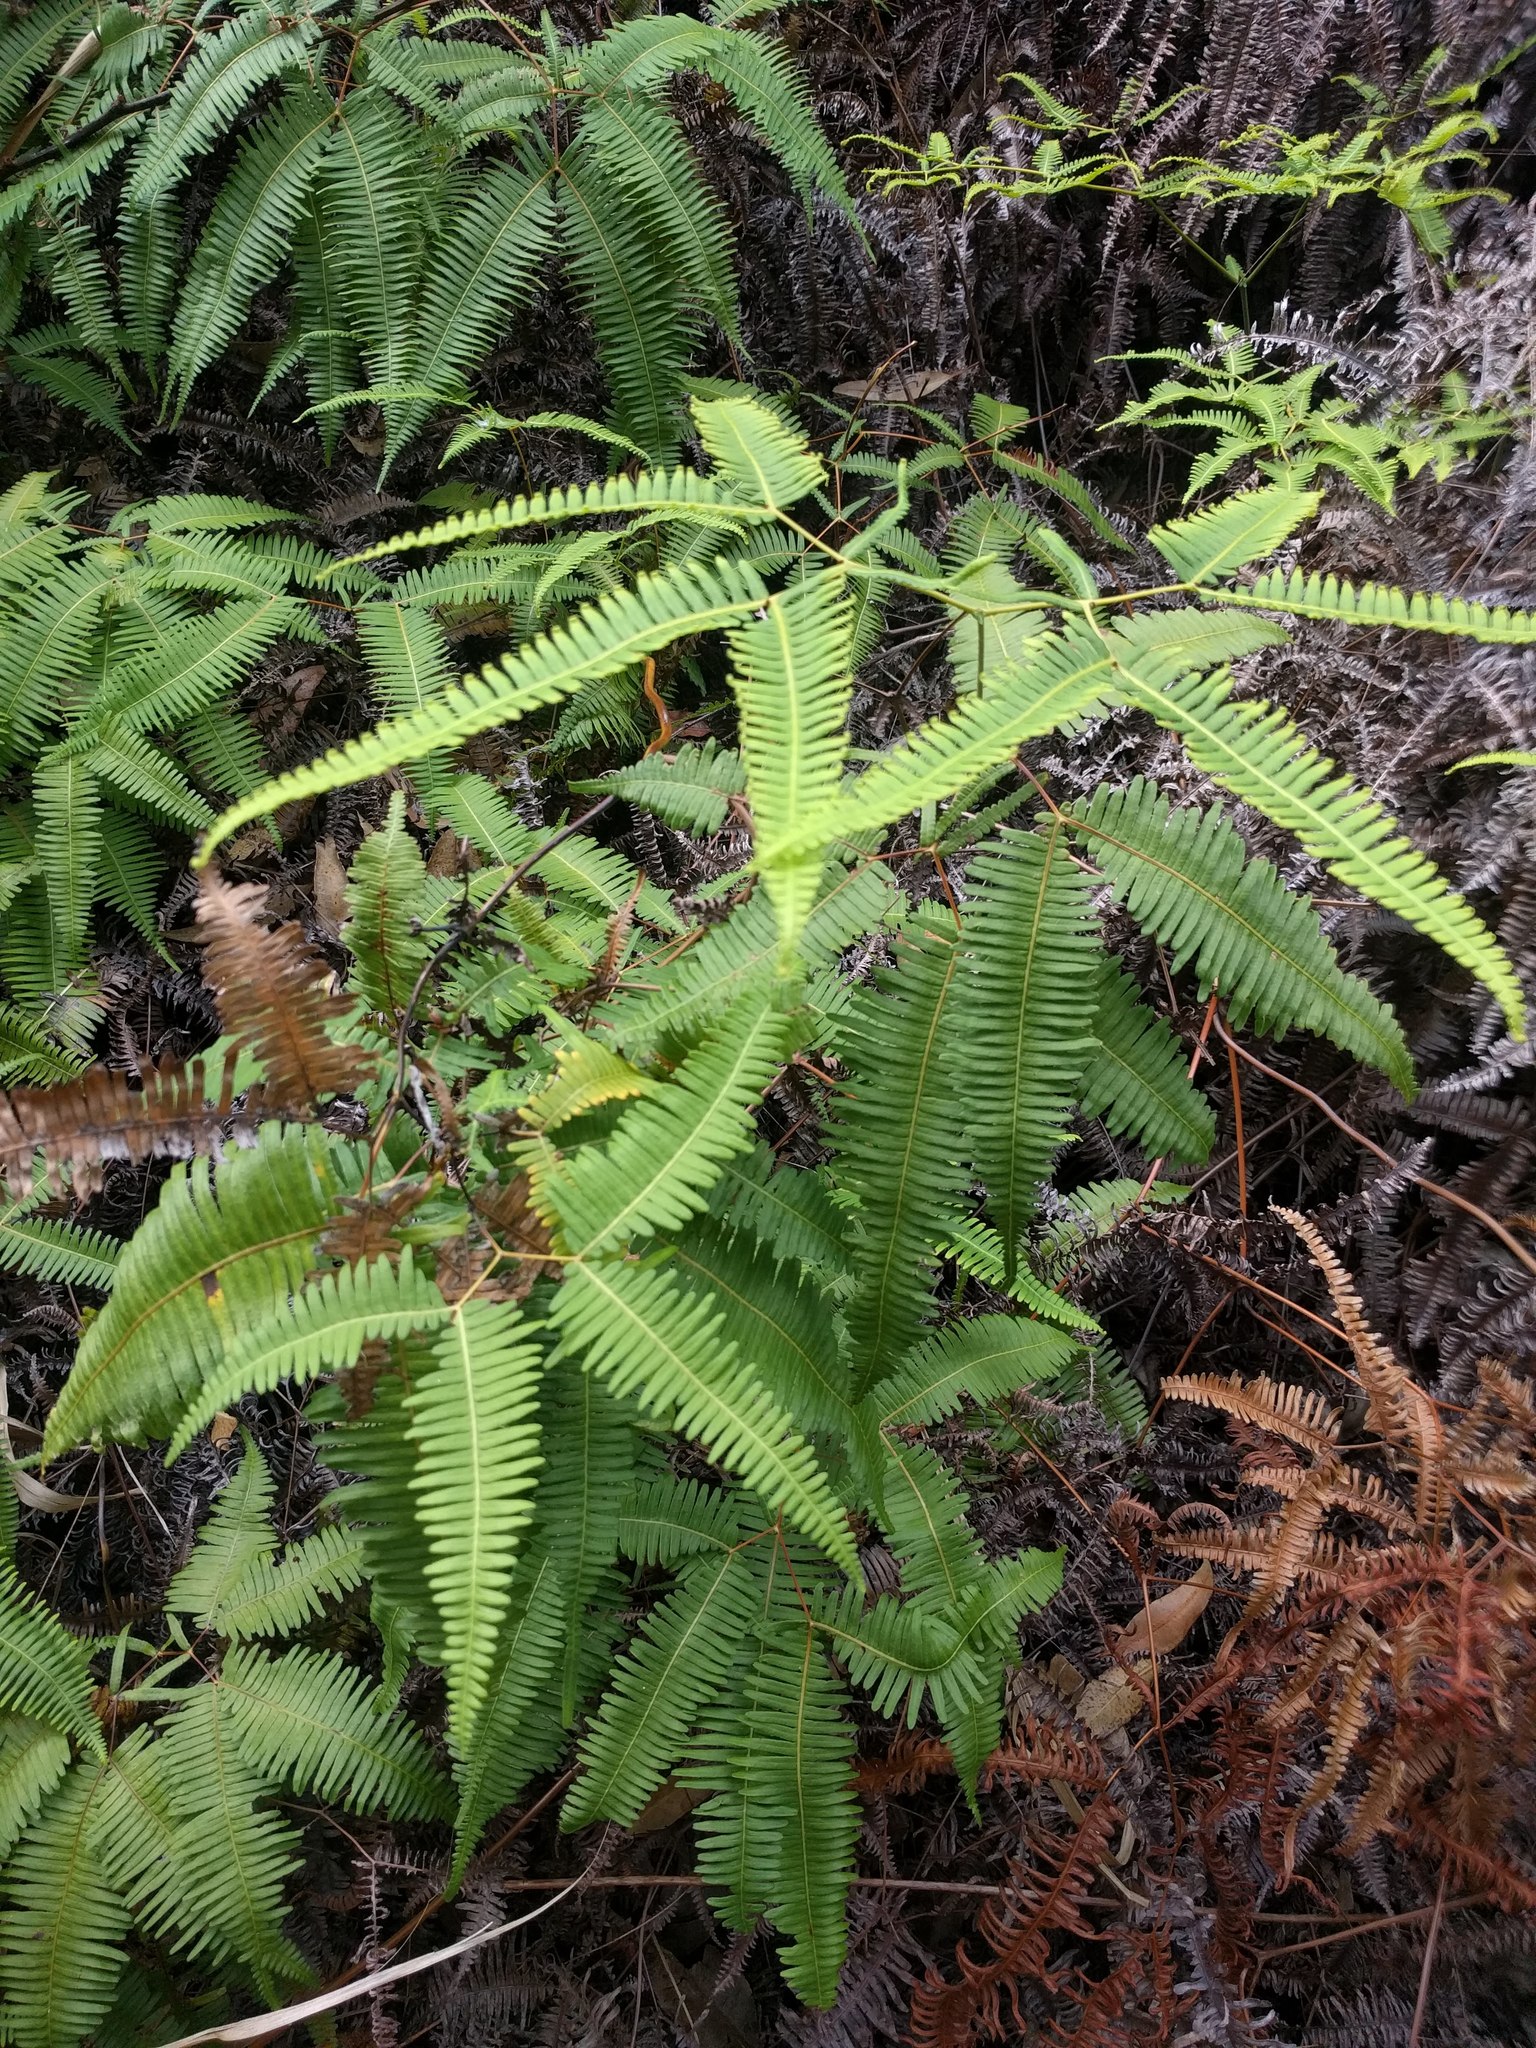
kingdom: Plantae
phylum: Tracheophyta
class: Polypodiopsida
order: Gleicheniales
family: Gleicheniaceae
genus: Dicranopteris
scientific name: Dicranopteris linearis
